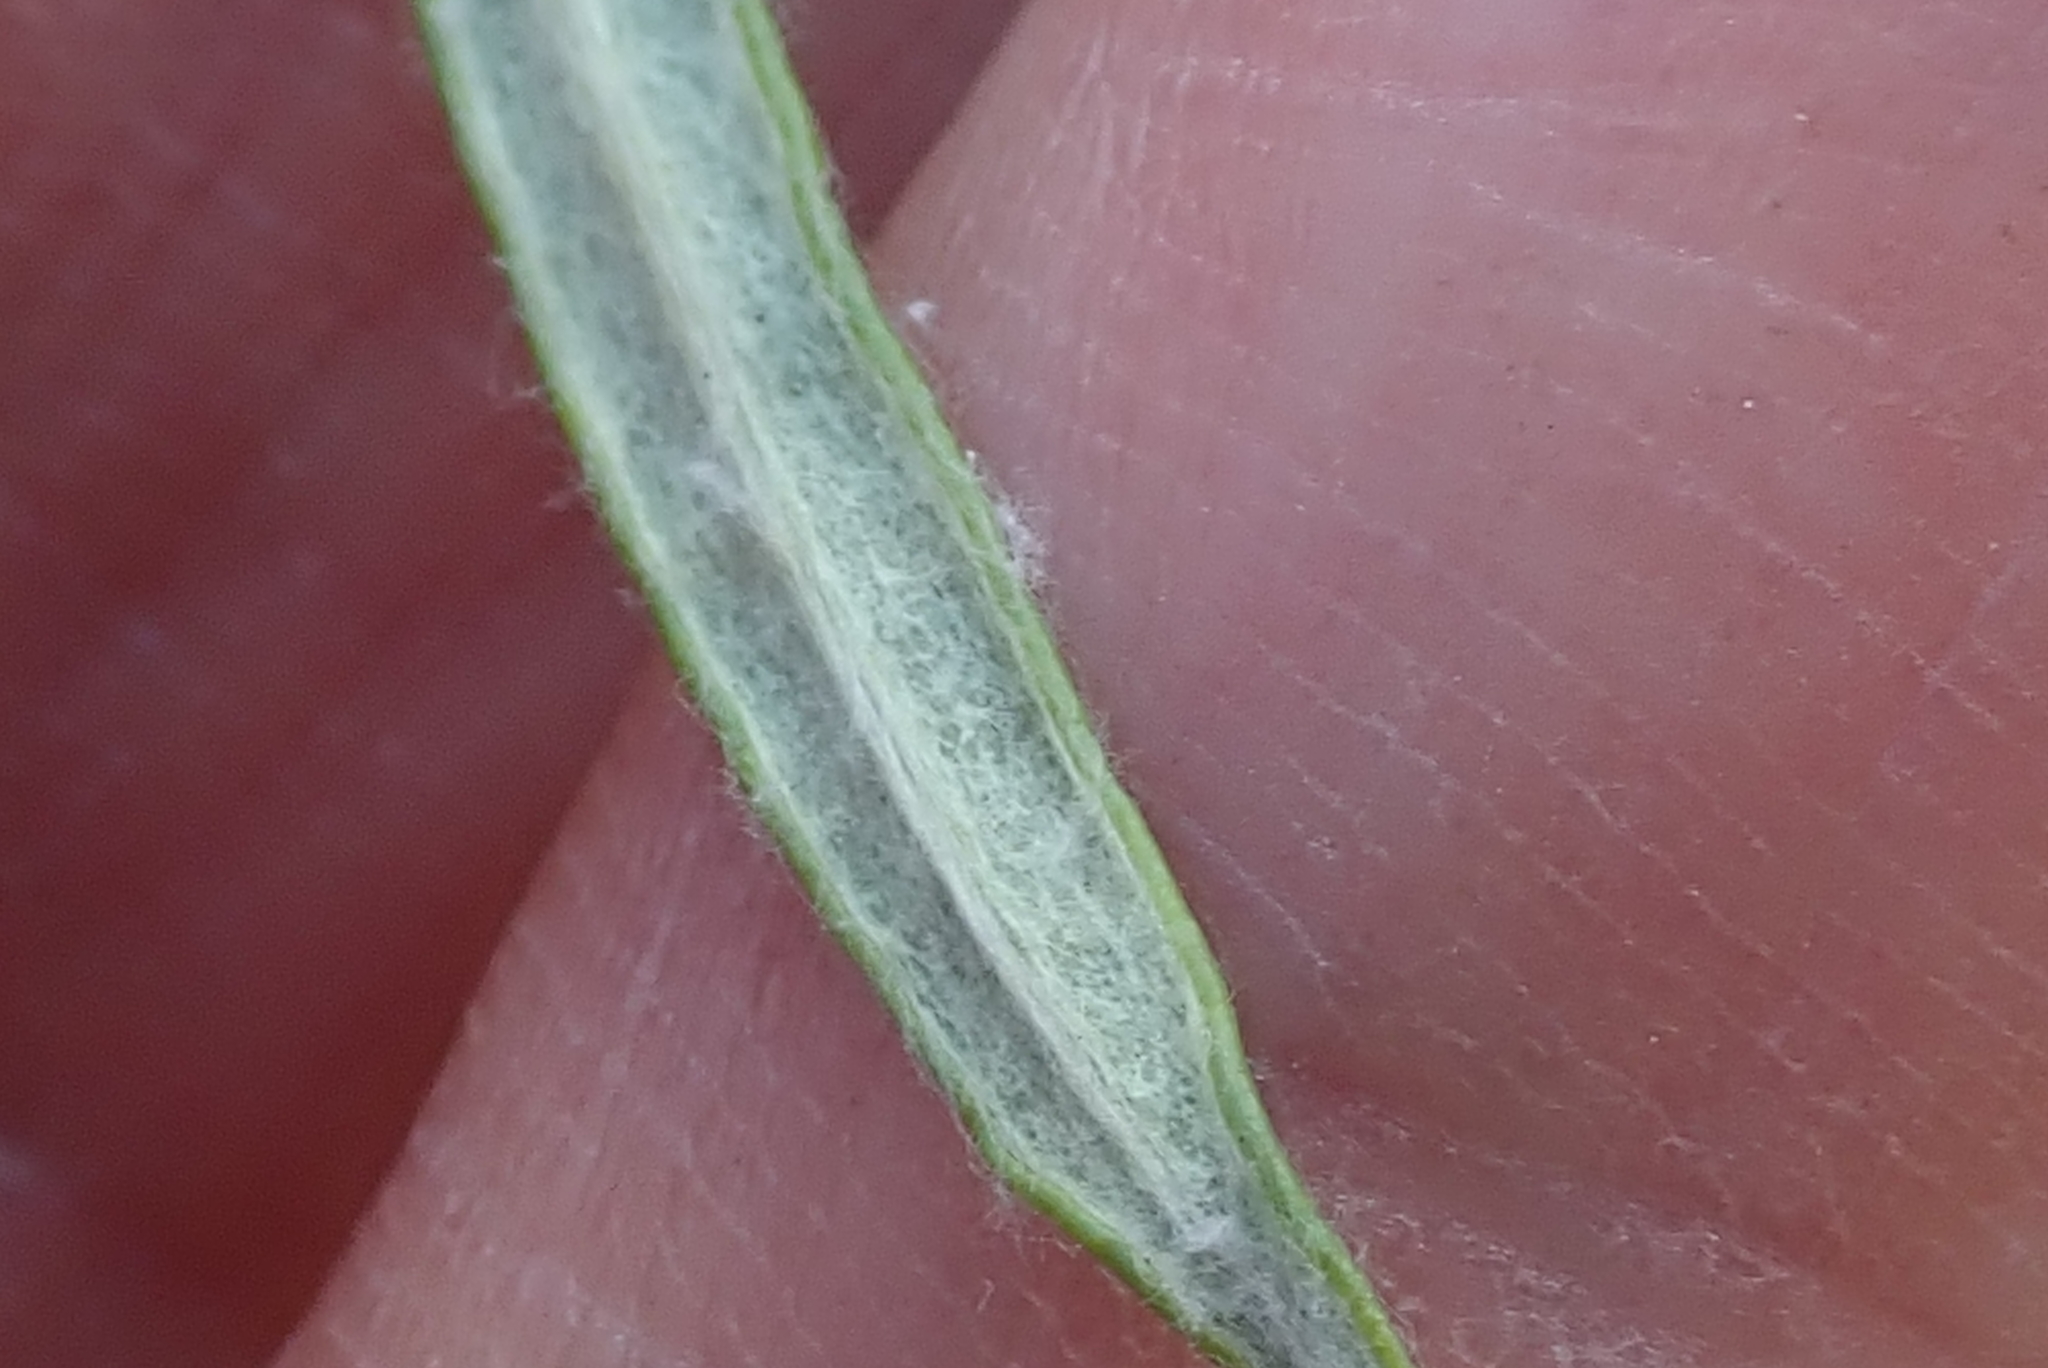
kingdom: Plantae
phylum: Tracheophyta
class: Magnoliopsida
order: Asterales
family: Asteraceae
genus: Helichrysum
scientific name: Helichrysum nudifolium
